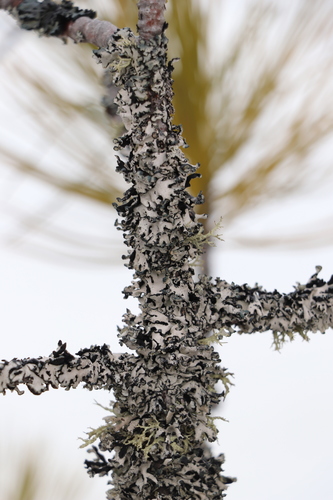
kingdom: Fungi
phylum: Ascomycota
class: Lecanoromycetes
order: Lecanorales
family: Parmeliaceae
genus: Hypogymnia
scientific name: Hypogymnia physodes
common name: Dark crottle
